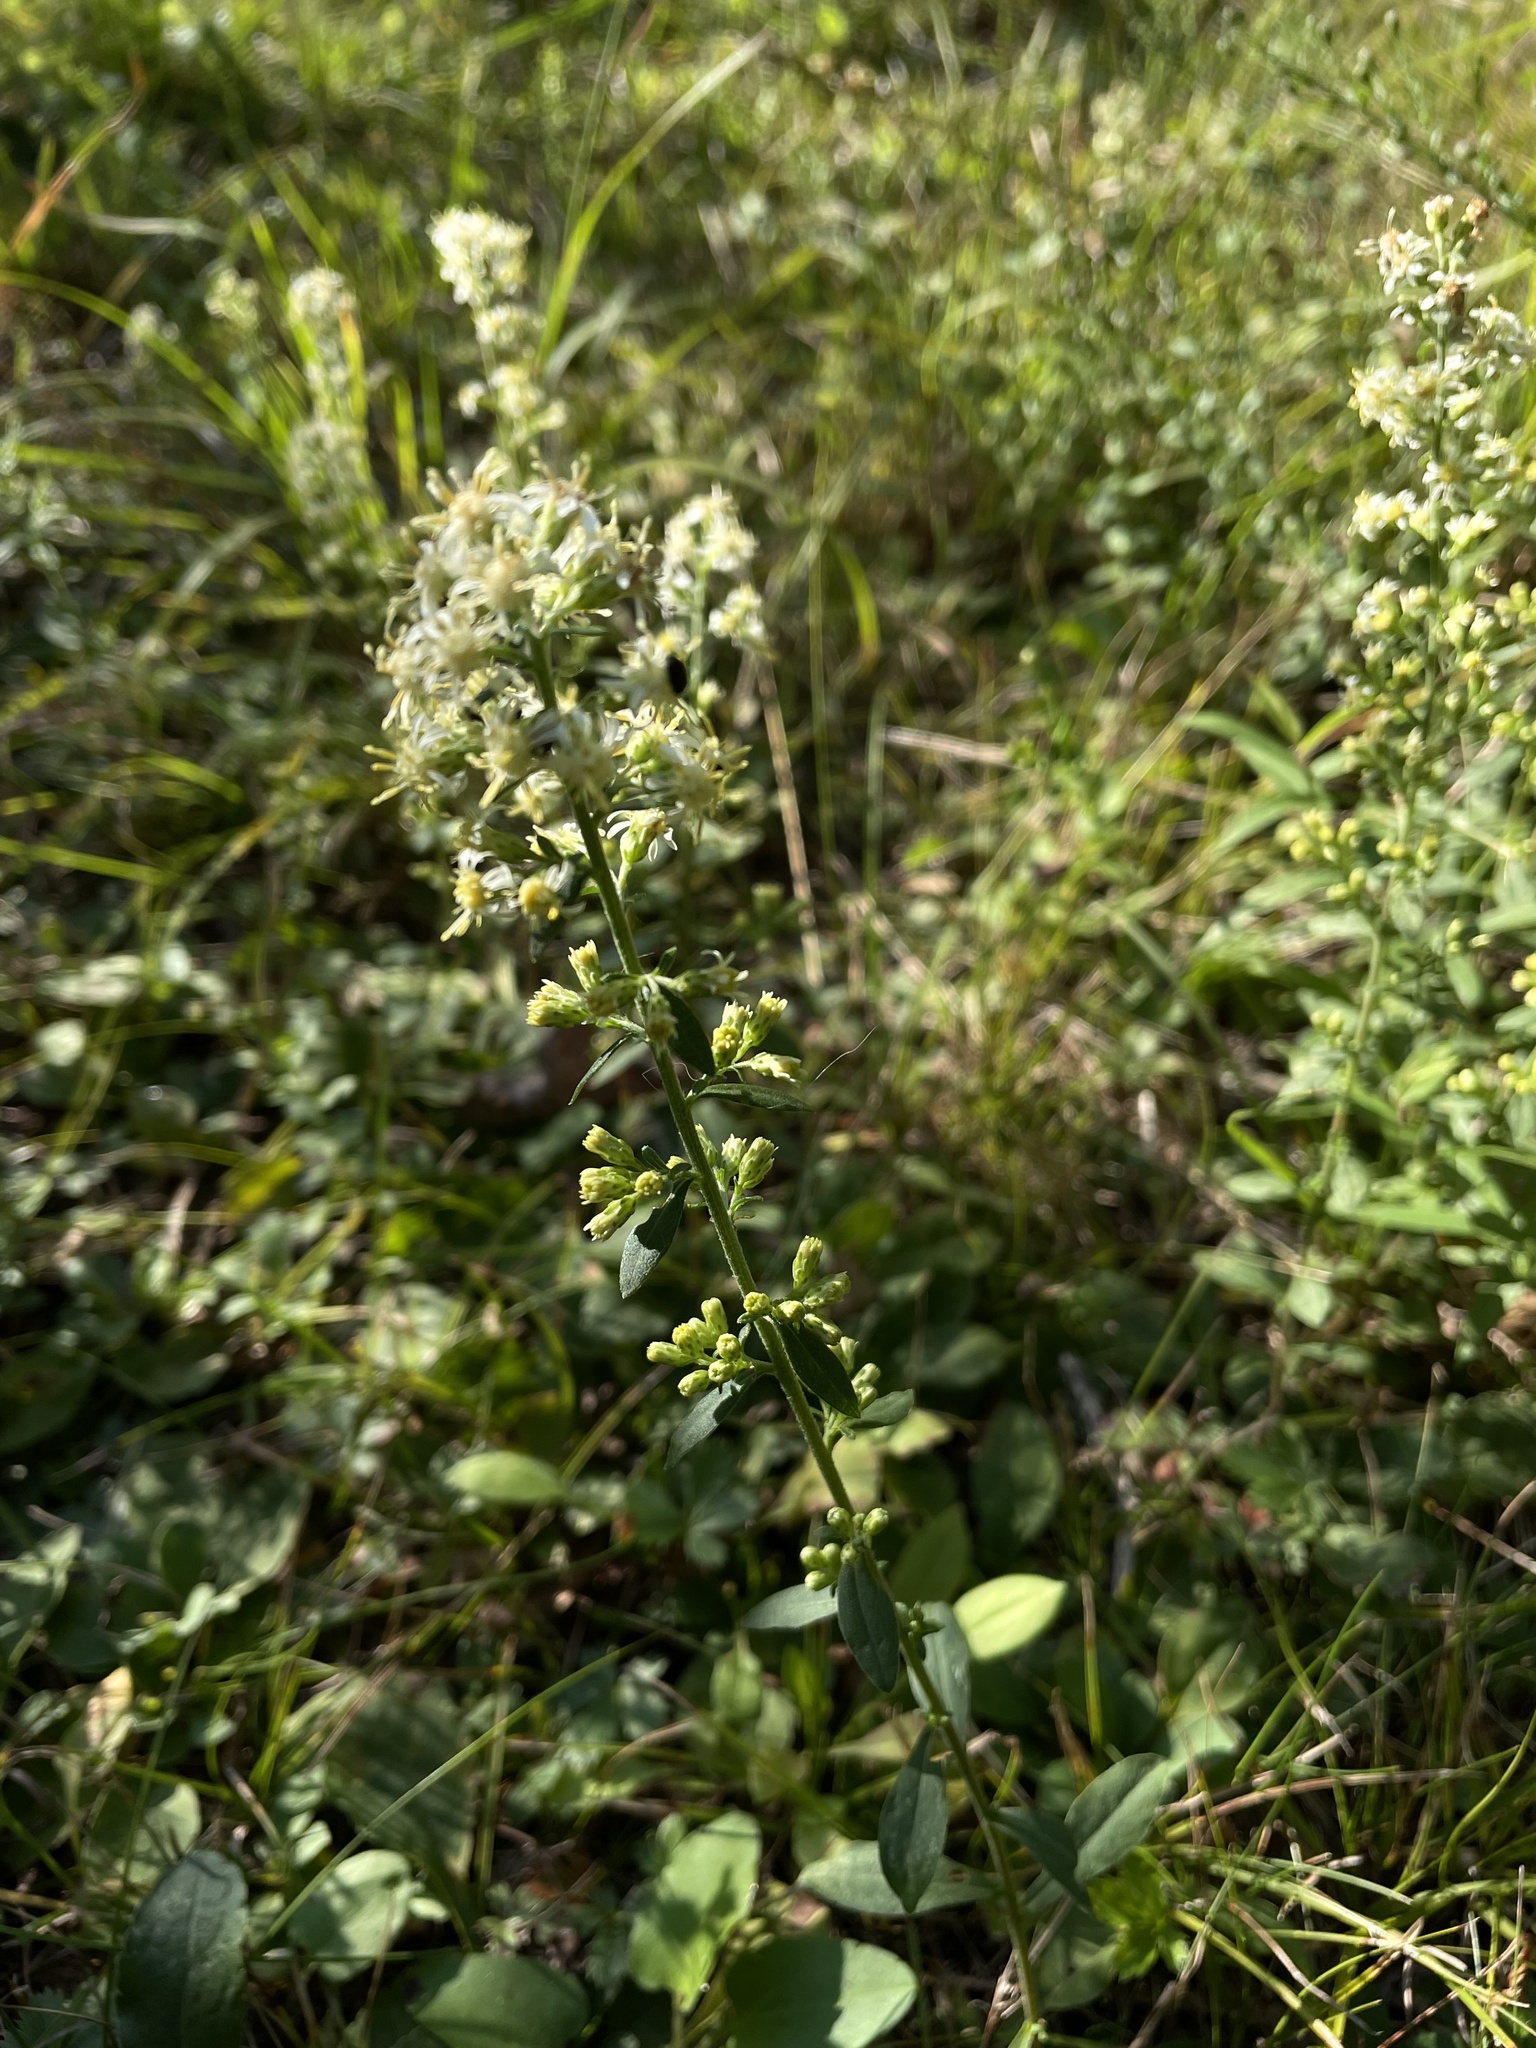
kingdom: Plantae
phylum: Tracheophyta
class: Magnoliopsida
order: Asterales
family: Asteraceae
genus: Solidago
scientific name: Solidago bicolor
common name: Silverrod
